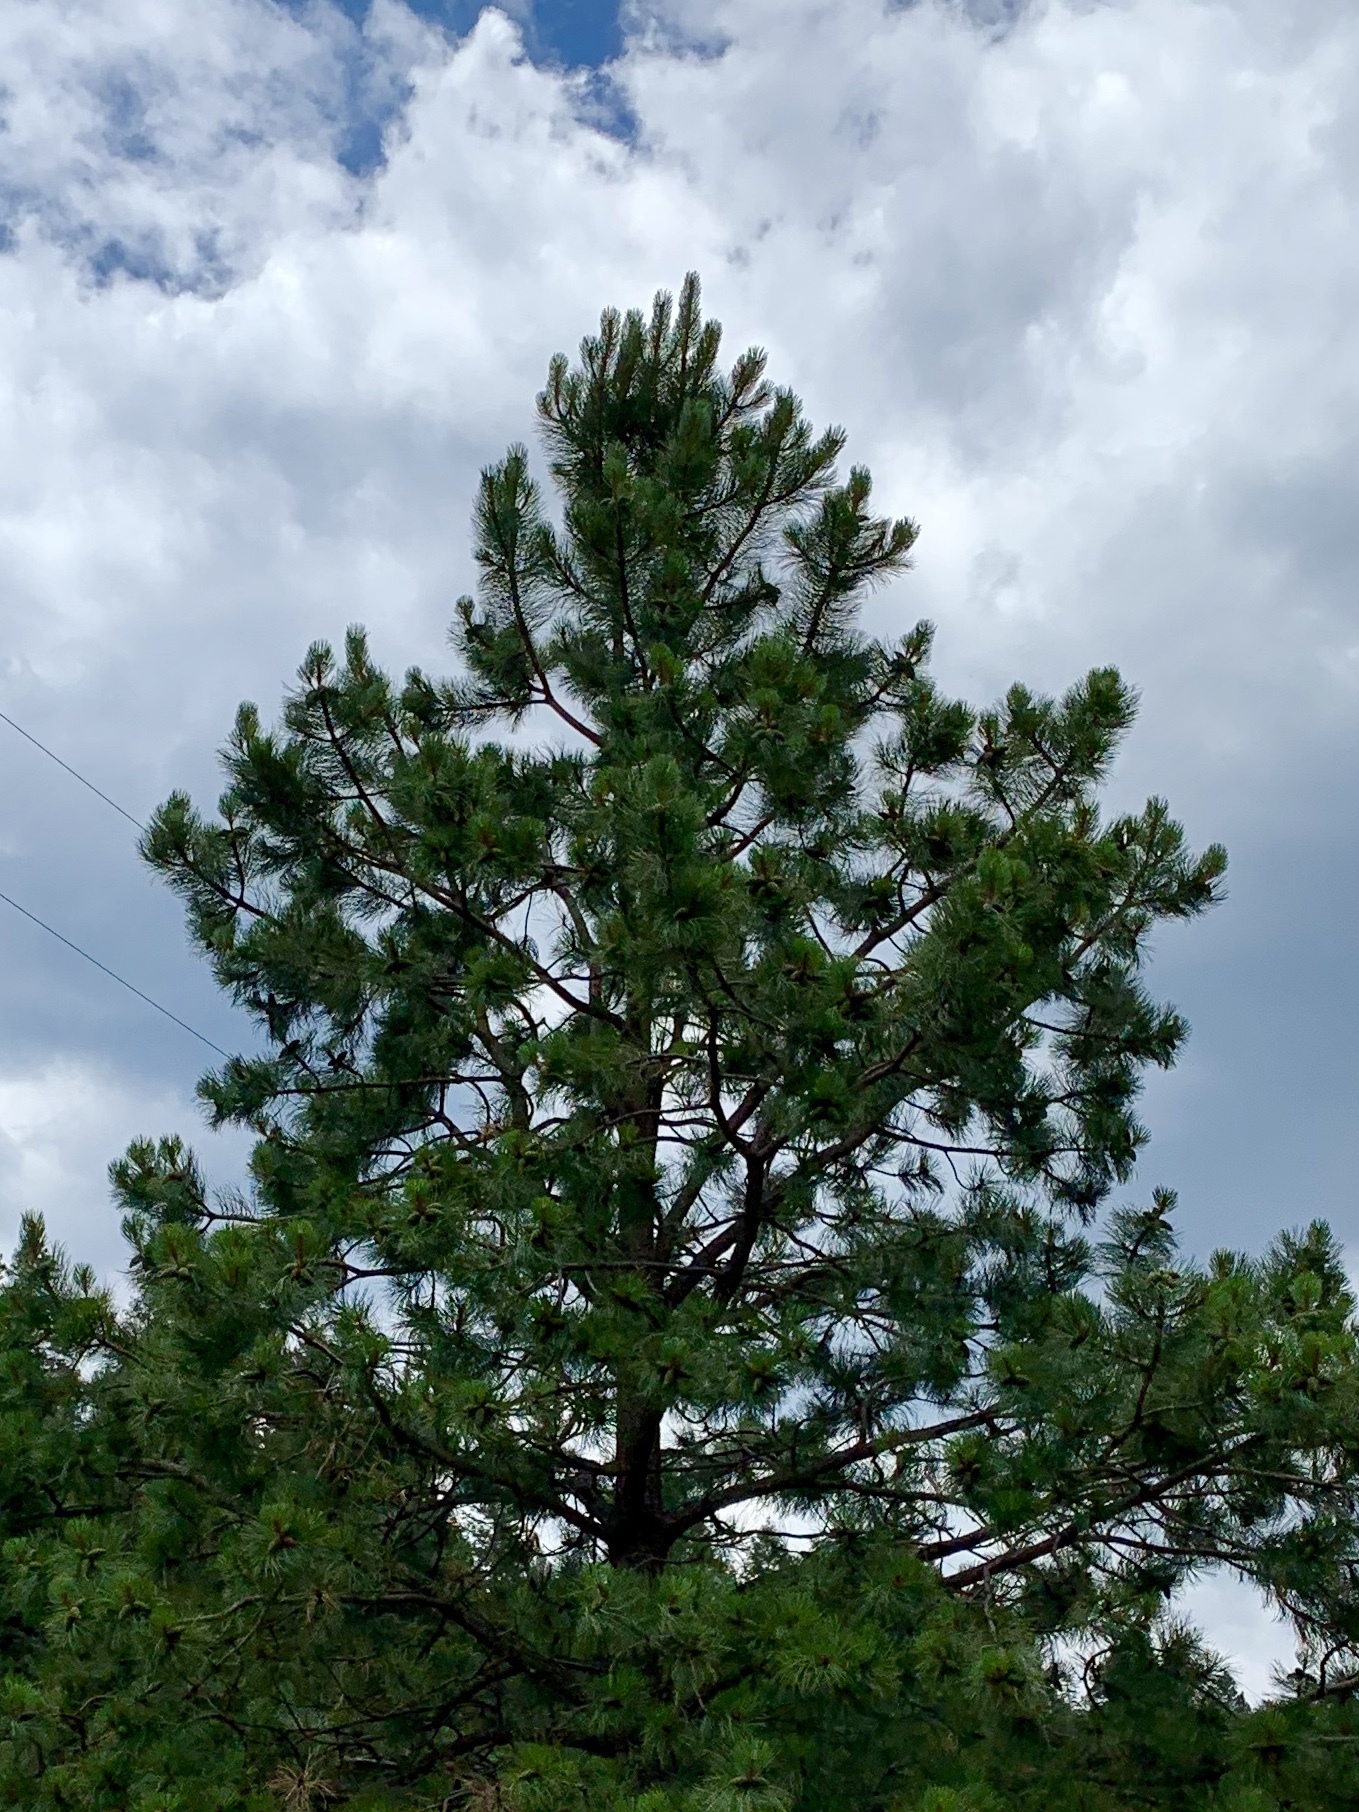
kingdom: Plantae
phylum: Tracheophyta
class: Pinopsida
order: Pinales
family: Pinaceae
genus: Pinus
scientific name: Pinus ponderosa
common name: Western yellow-pine
